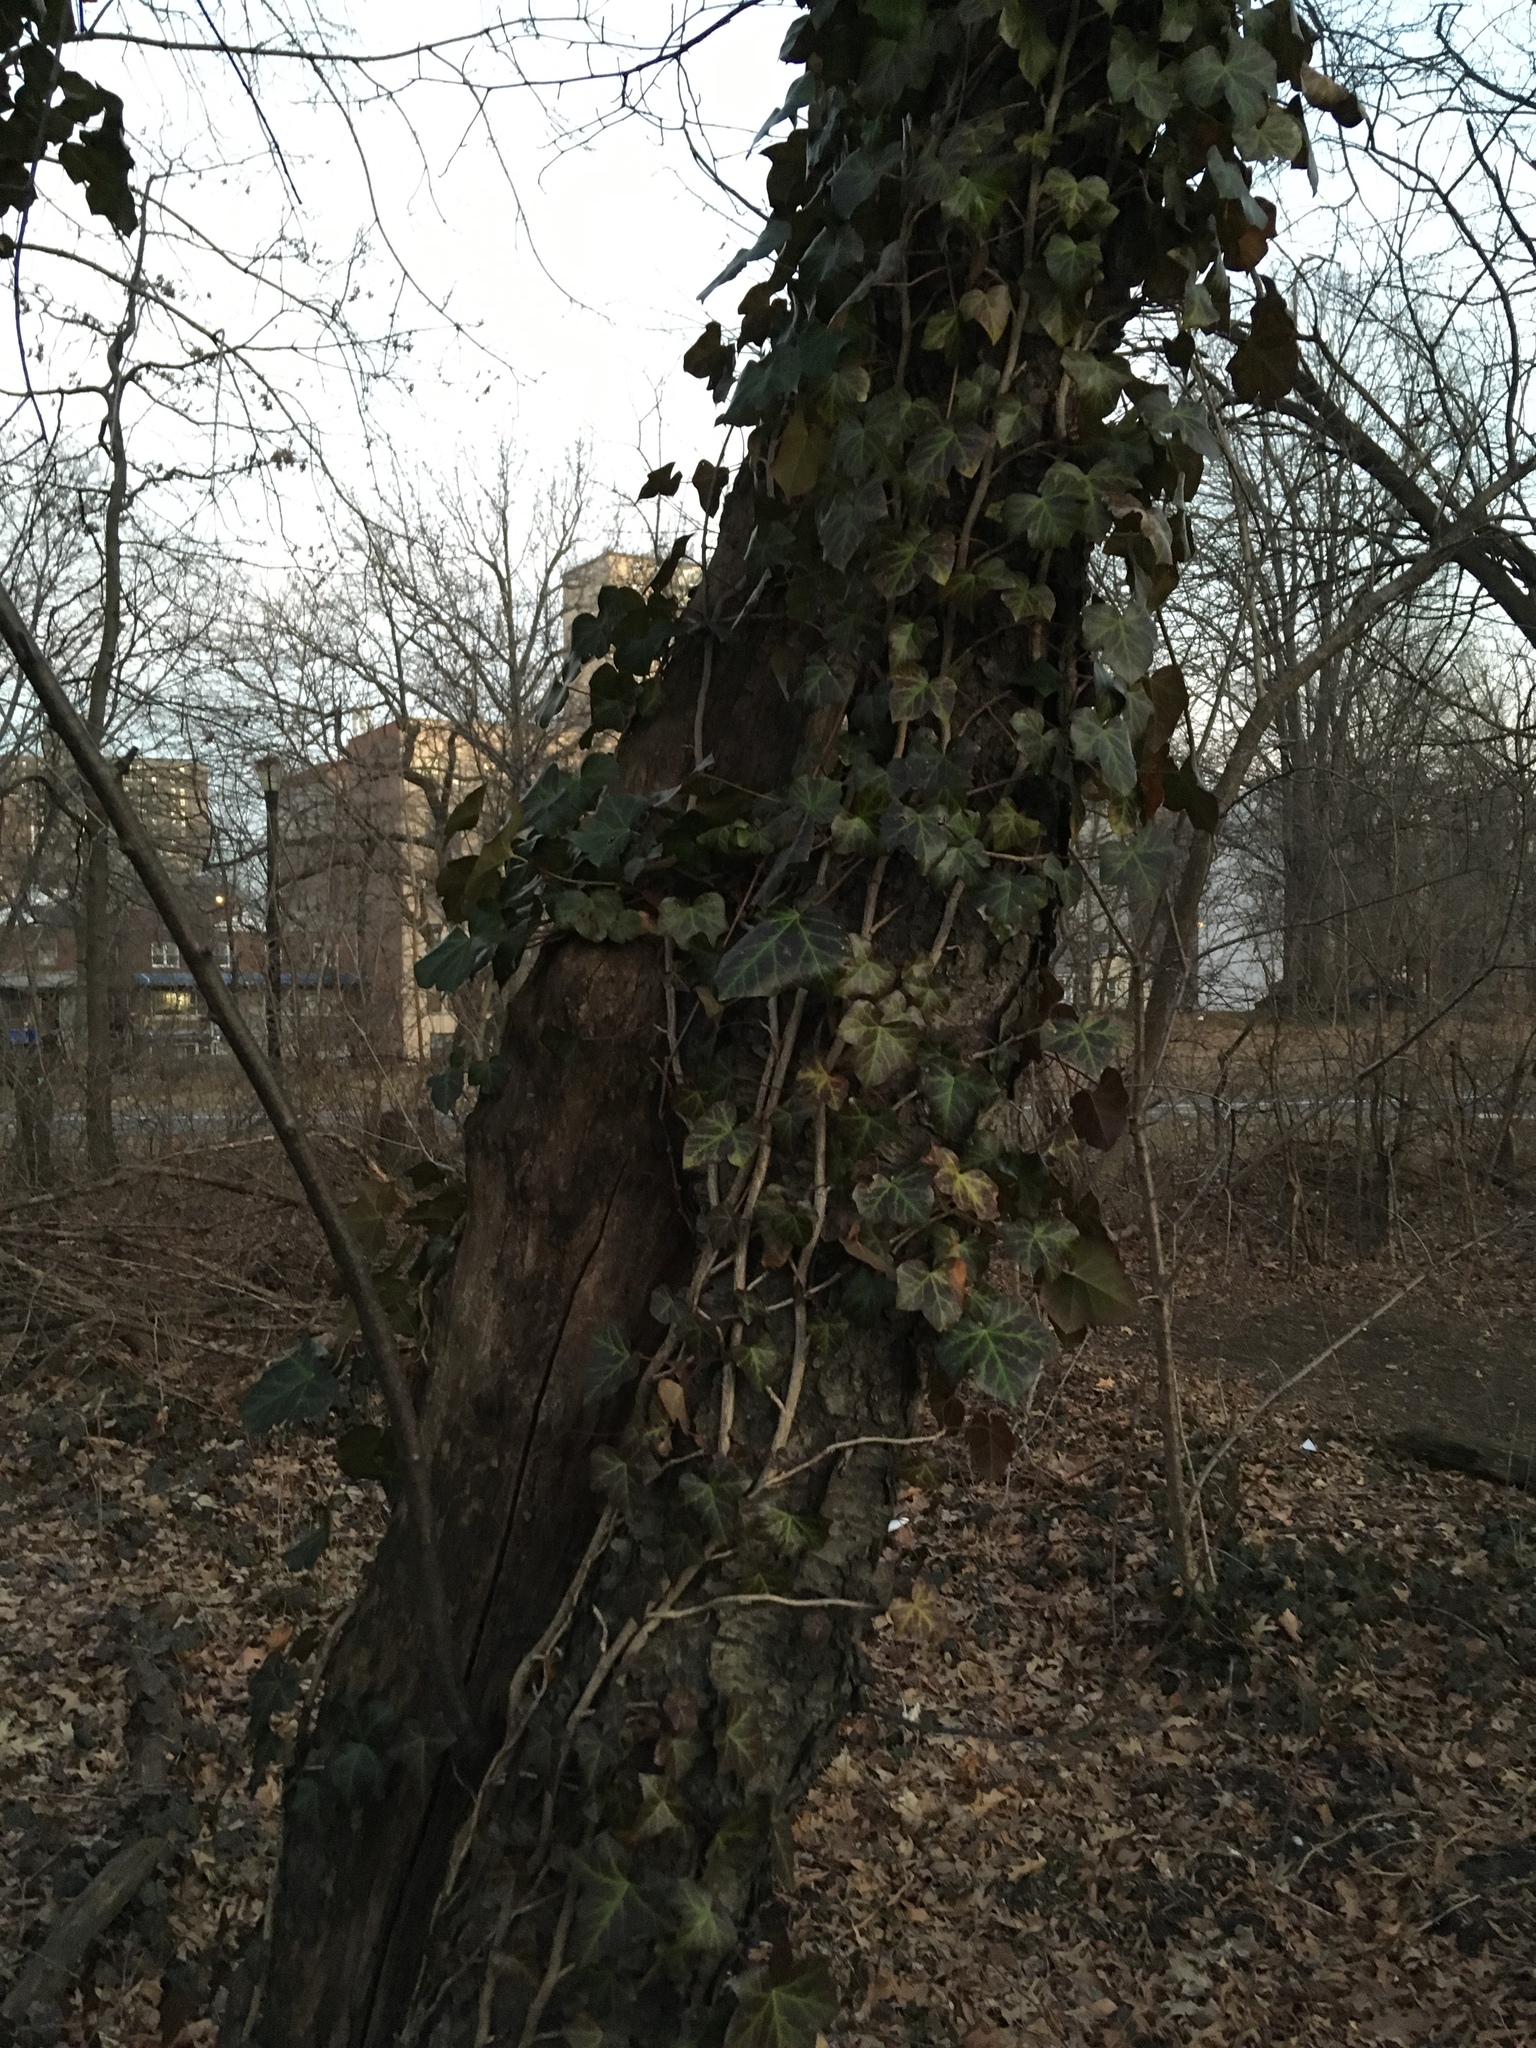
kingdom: Plantae
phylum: Tracheophyta
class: Magnoliopsida
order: Apiales
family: Araliaceae
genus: Hedera
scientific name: Hedera helix
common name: Ivy
